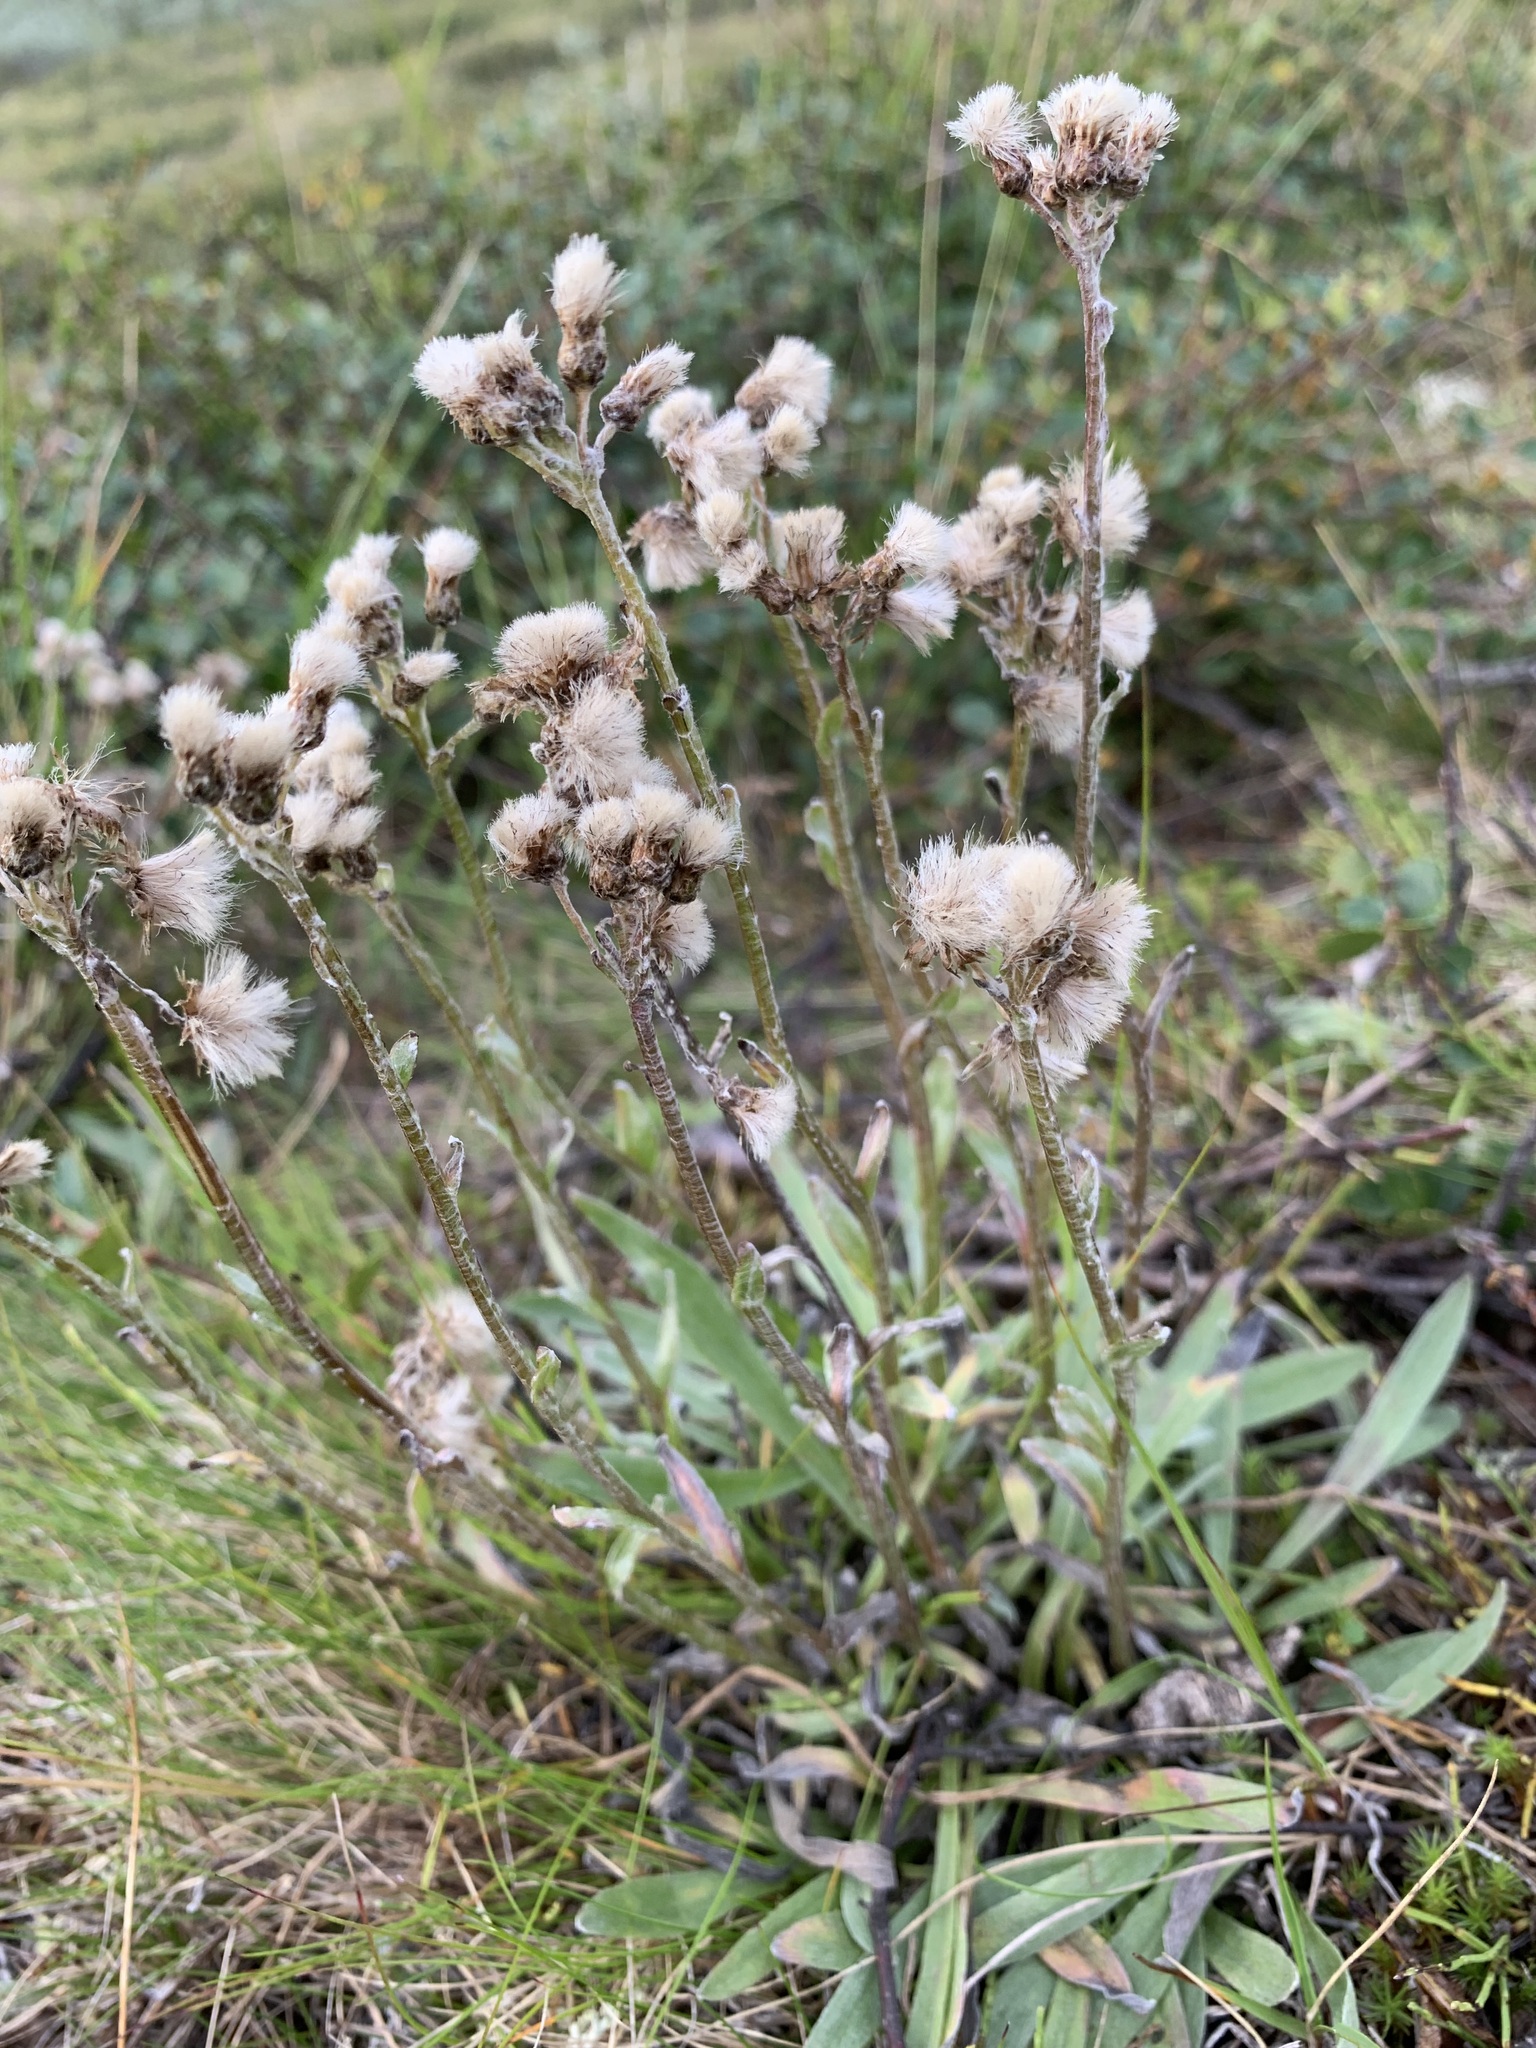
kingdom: Plantae
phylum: Tracheophyta
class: Magnoliopsida
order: Asterales
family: Asteraceae
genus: Antennaria
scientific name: Antennaria lanata
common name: Woolly pussytoes
